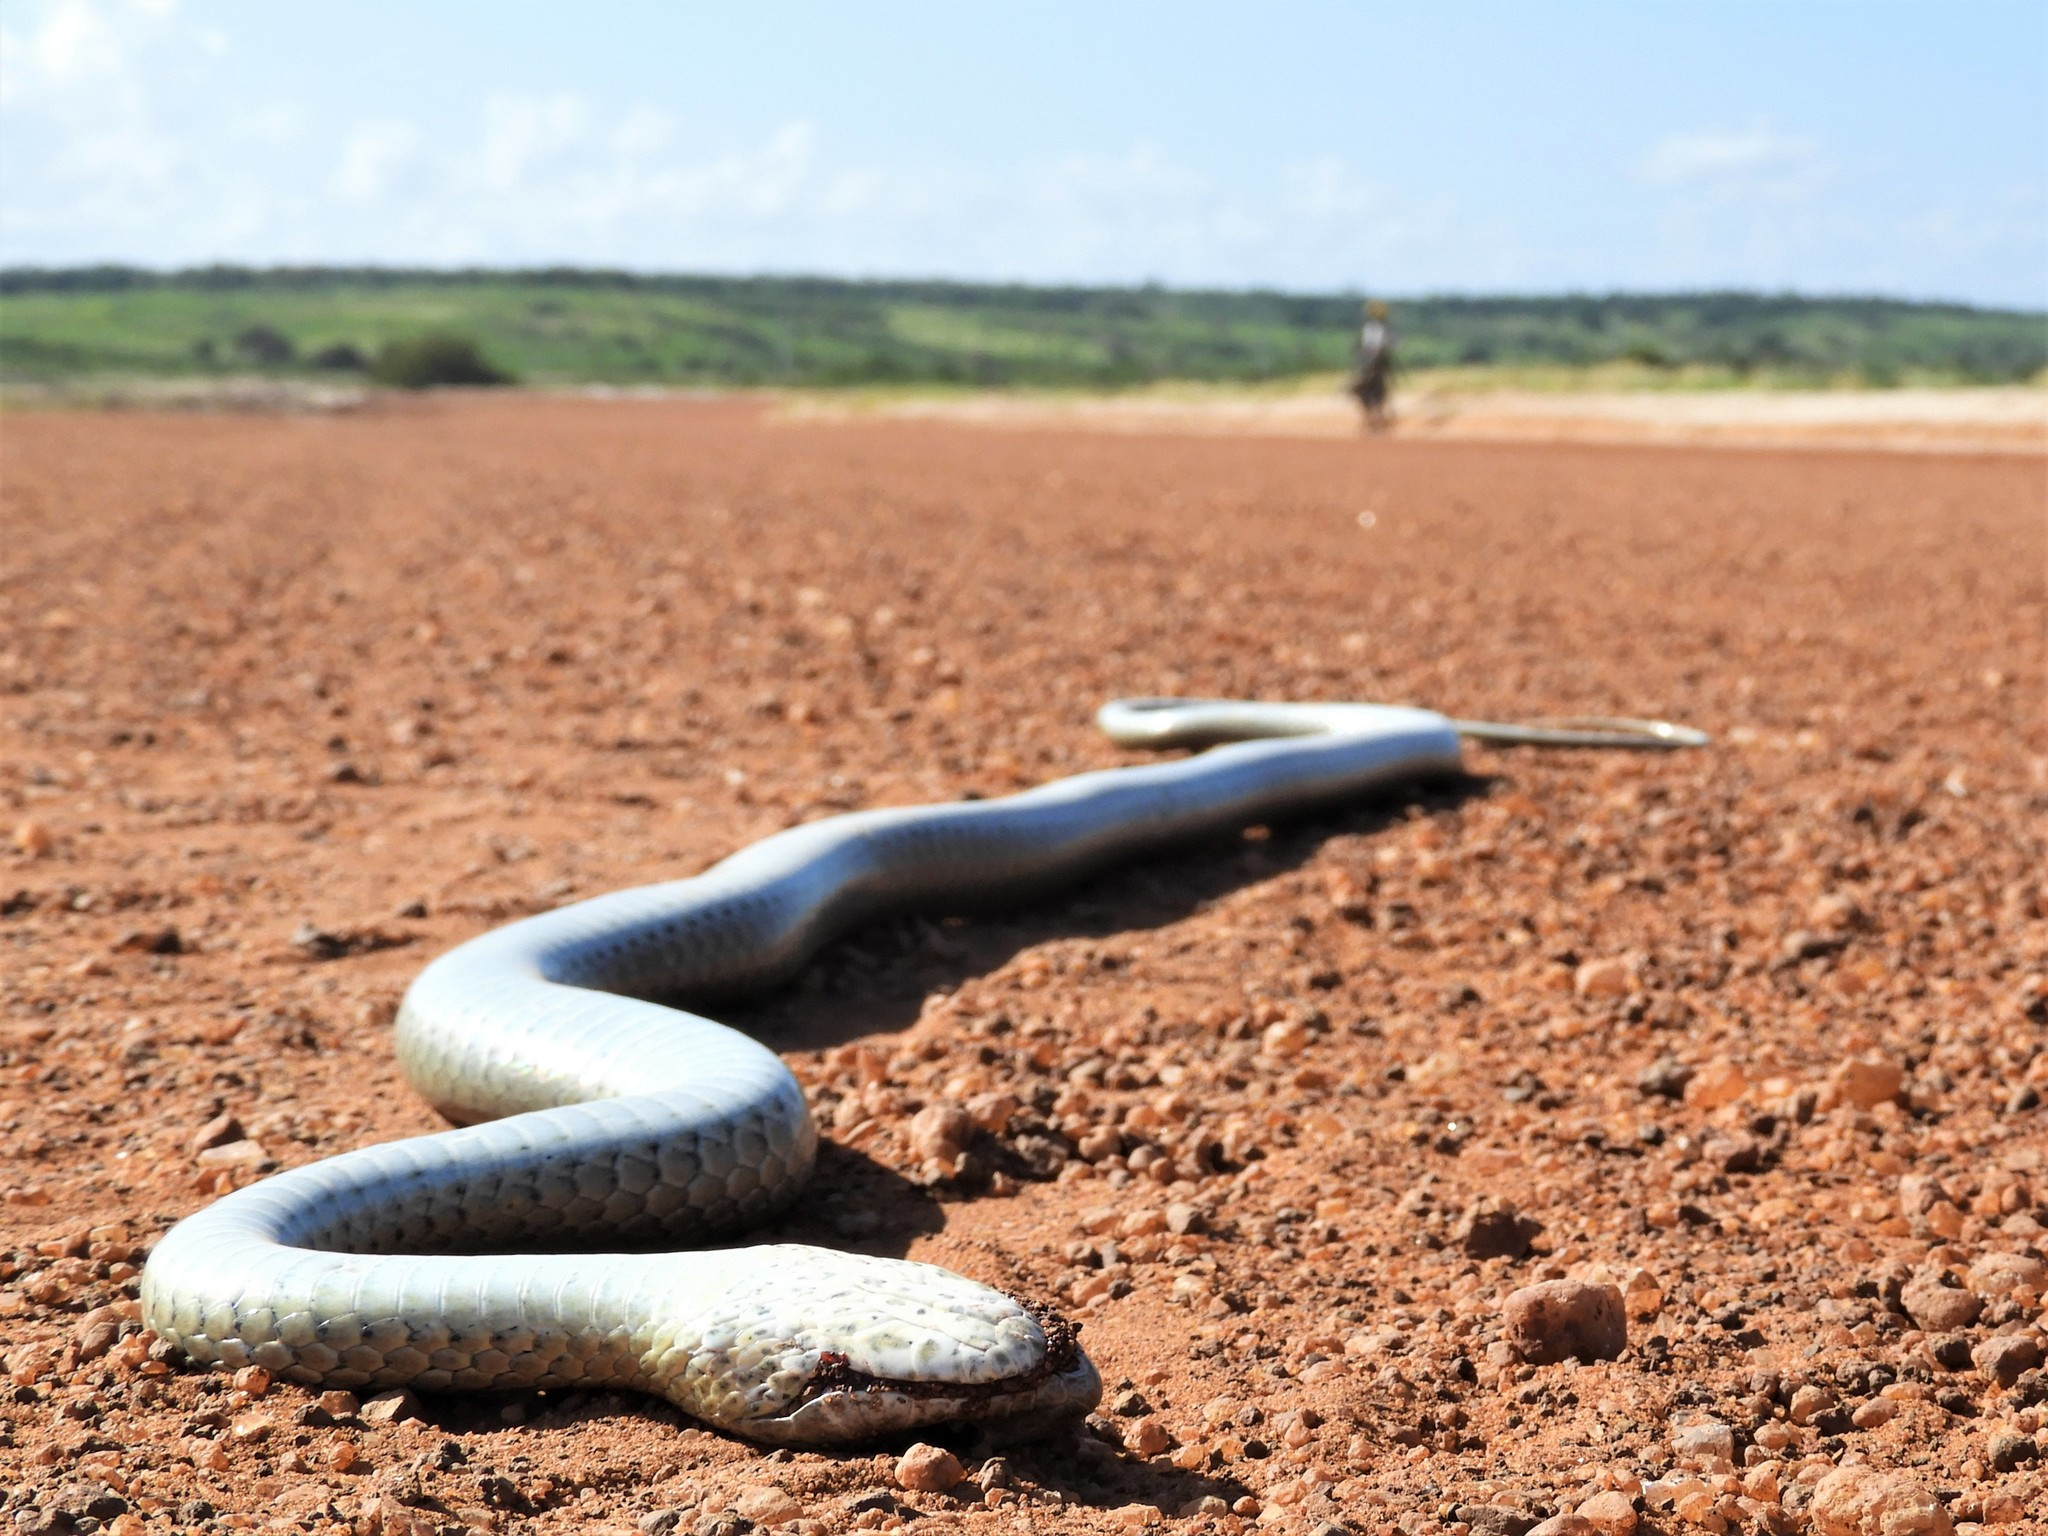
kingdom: Animalia
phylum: Chordata
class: Squamata
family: Psammophiidae
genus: Psammophis
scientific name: Psammophis mossambicus
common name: Olive grass snake
